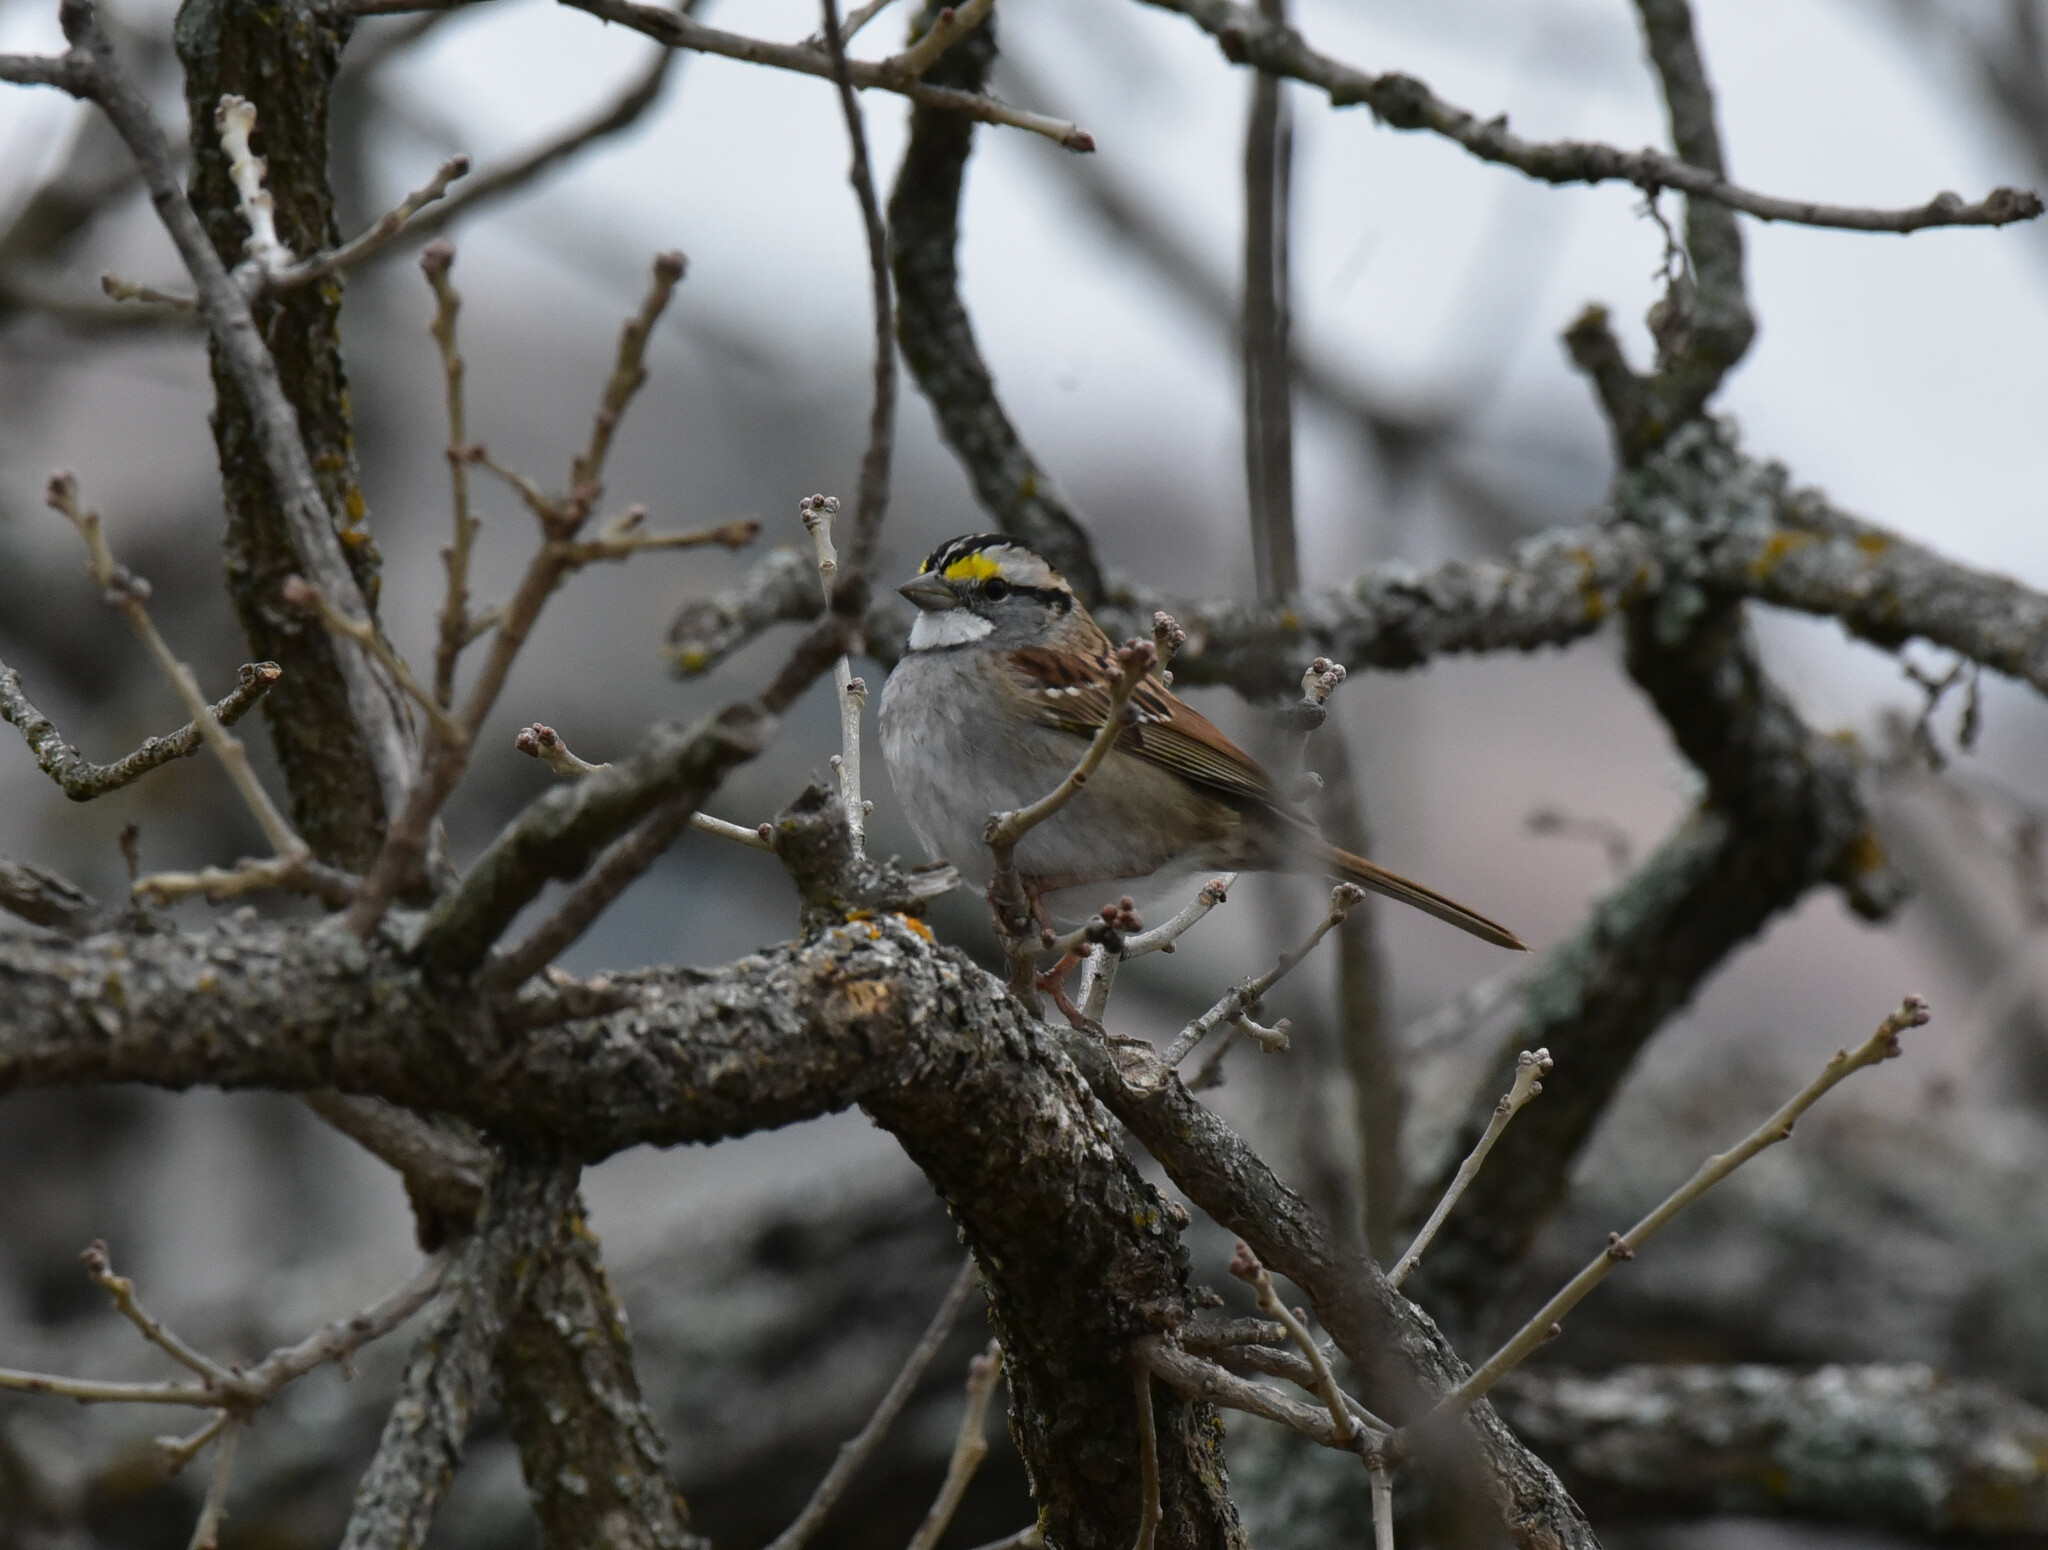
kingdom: Animalia
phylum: Chordata
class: Aves
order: Passeriformes
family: Passerellidae
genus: Zonotrichia
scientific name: Zonotrichia albicollis
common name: White-throated sparrow
